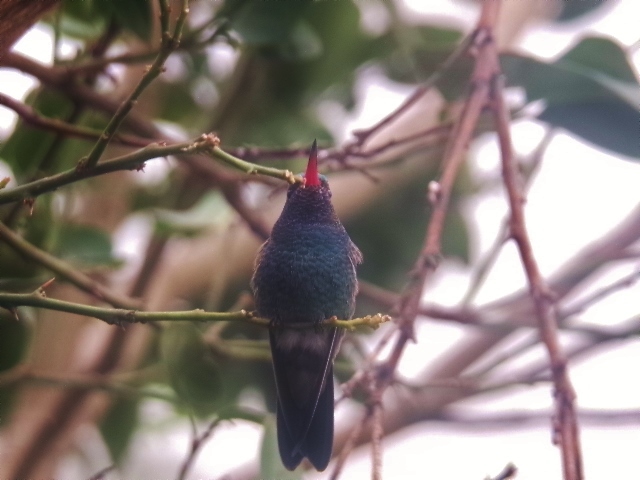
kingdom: Animalia
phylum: Chordata
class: Aves
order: Apodiformes
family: Trochilidae
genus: Cynanthus
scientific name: Cynanthus latirostris
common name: Broad-billed hummingbird
